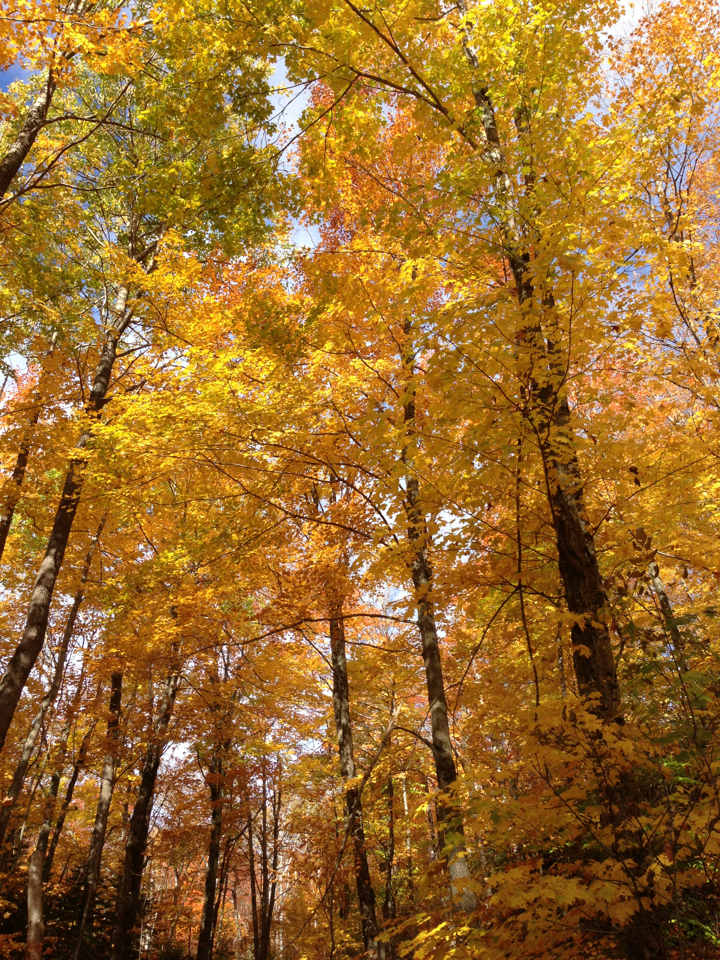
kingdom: Plantae
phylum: Tracheophyta
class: Magnoliopsida
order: Sapindales
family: Sapindaceae
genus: Acer
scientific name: Acer saccharum
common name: Sugar maple
